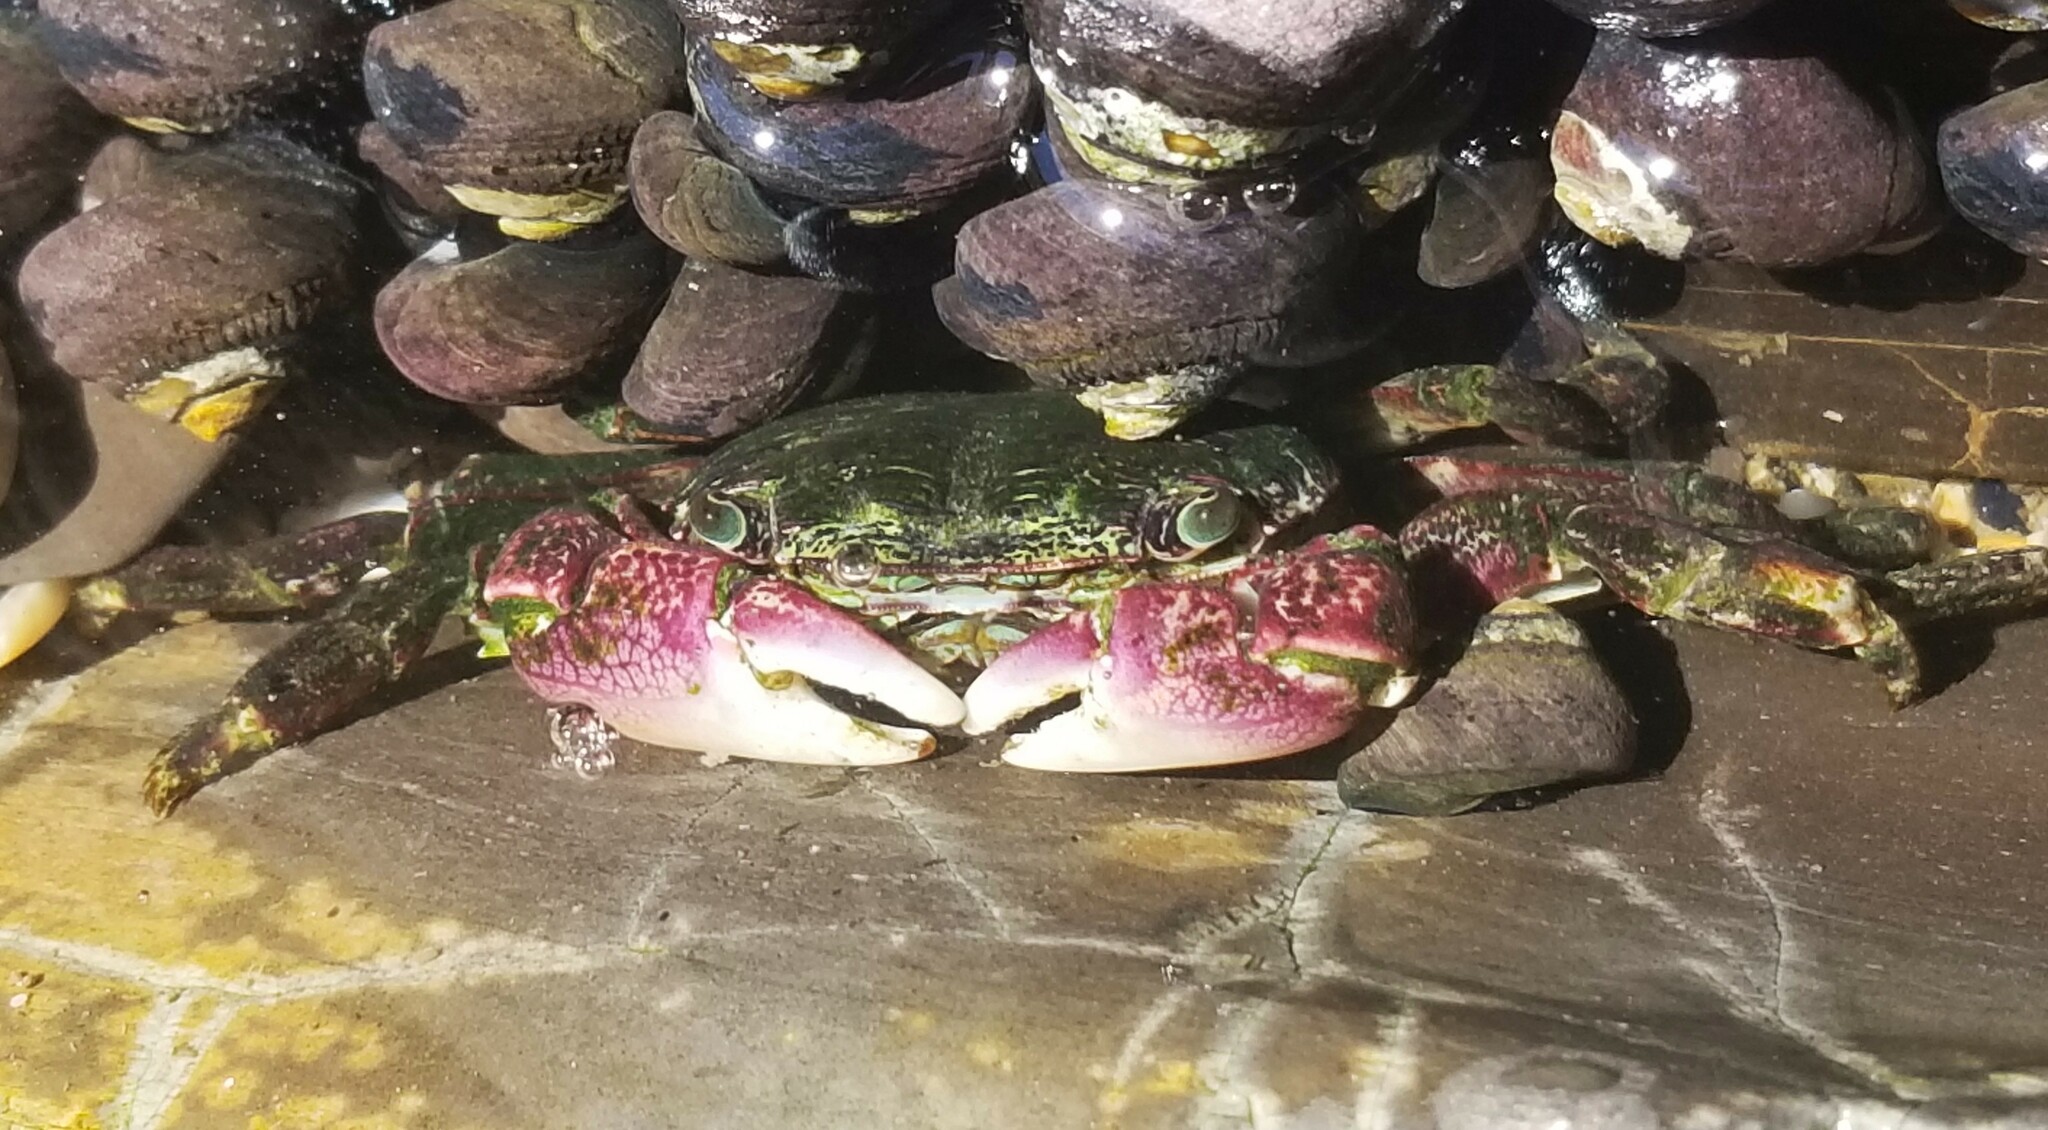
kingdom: Animalia
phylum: Arthropoda
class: Malacostraca
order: Decapoda
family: Grapsidae
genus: Pachygrapsus
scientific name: Pachygrapsus crassipes
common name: Striped shore crab
